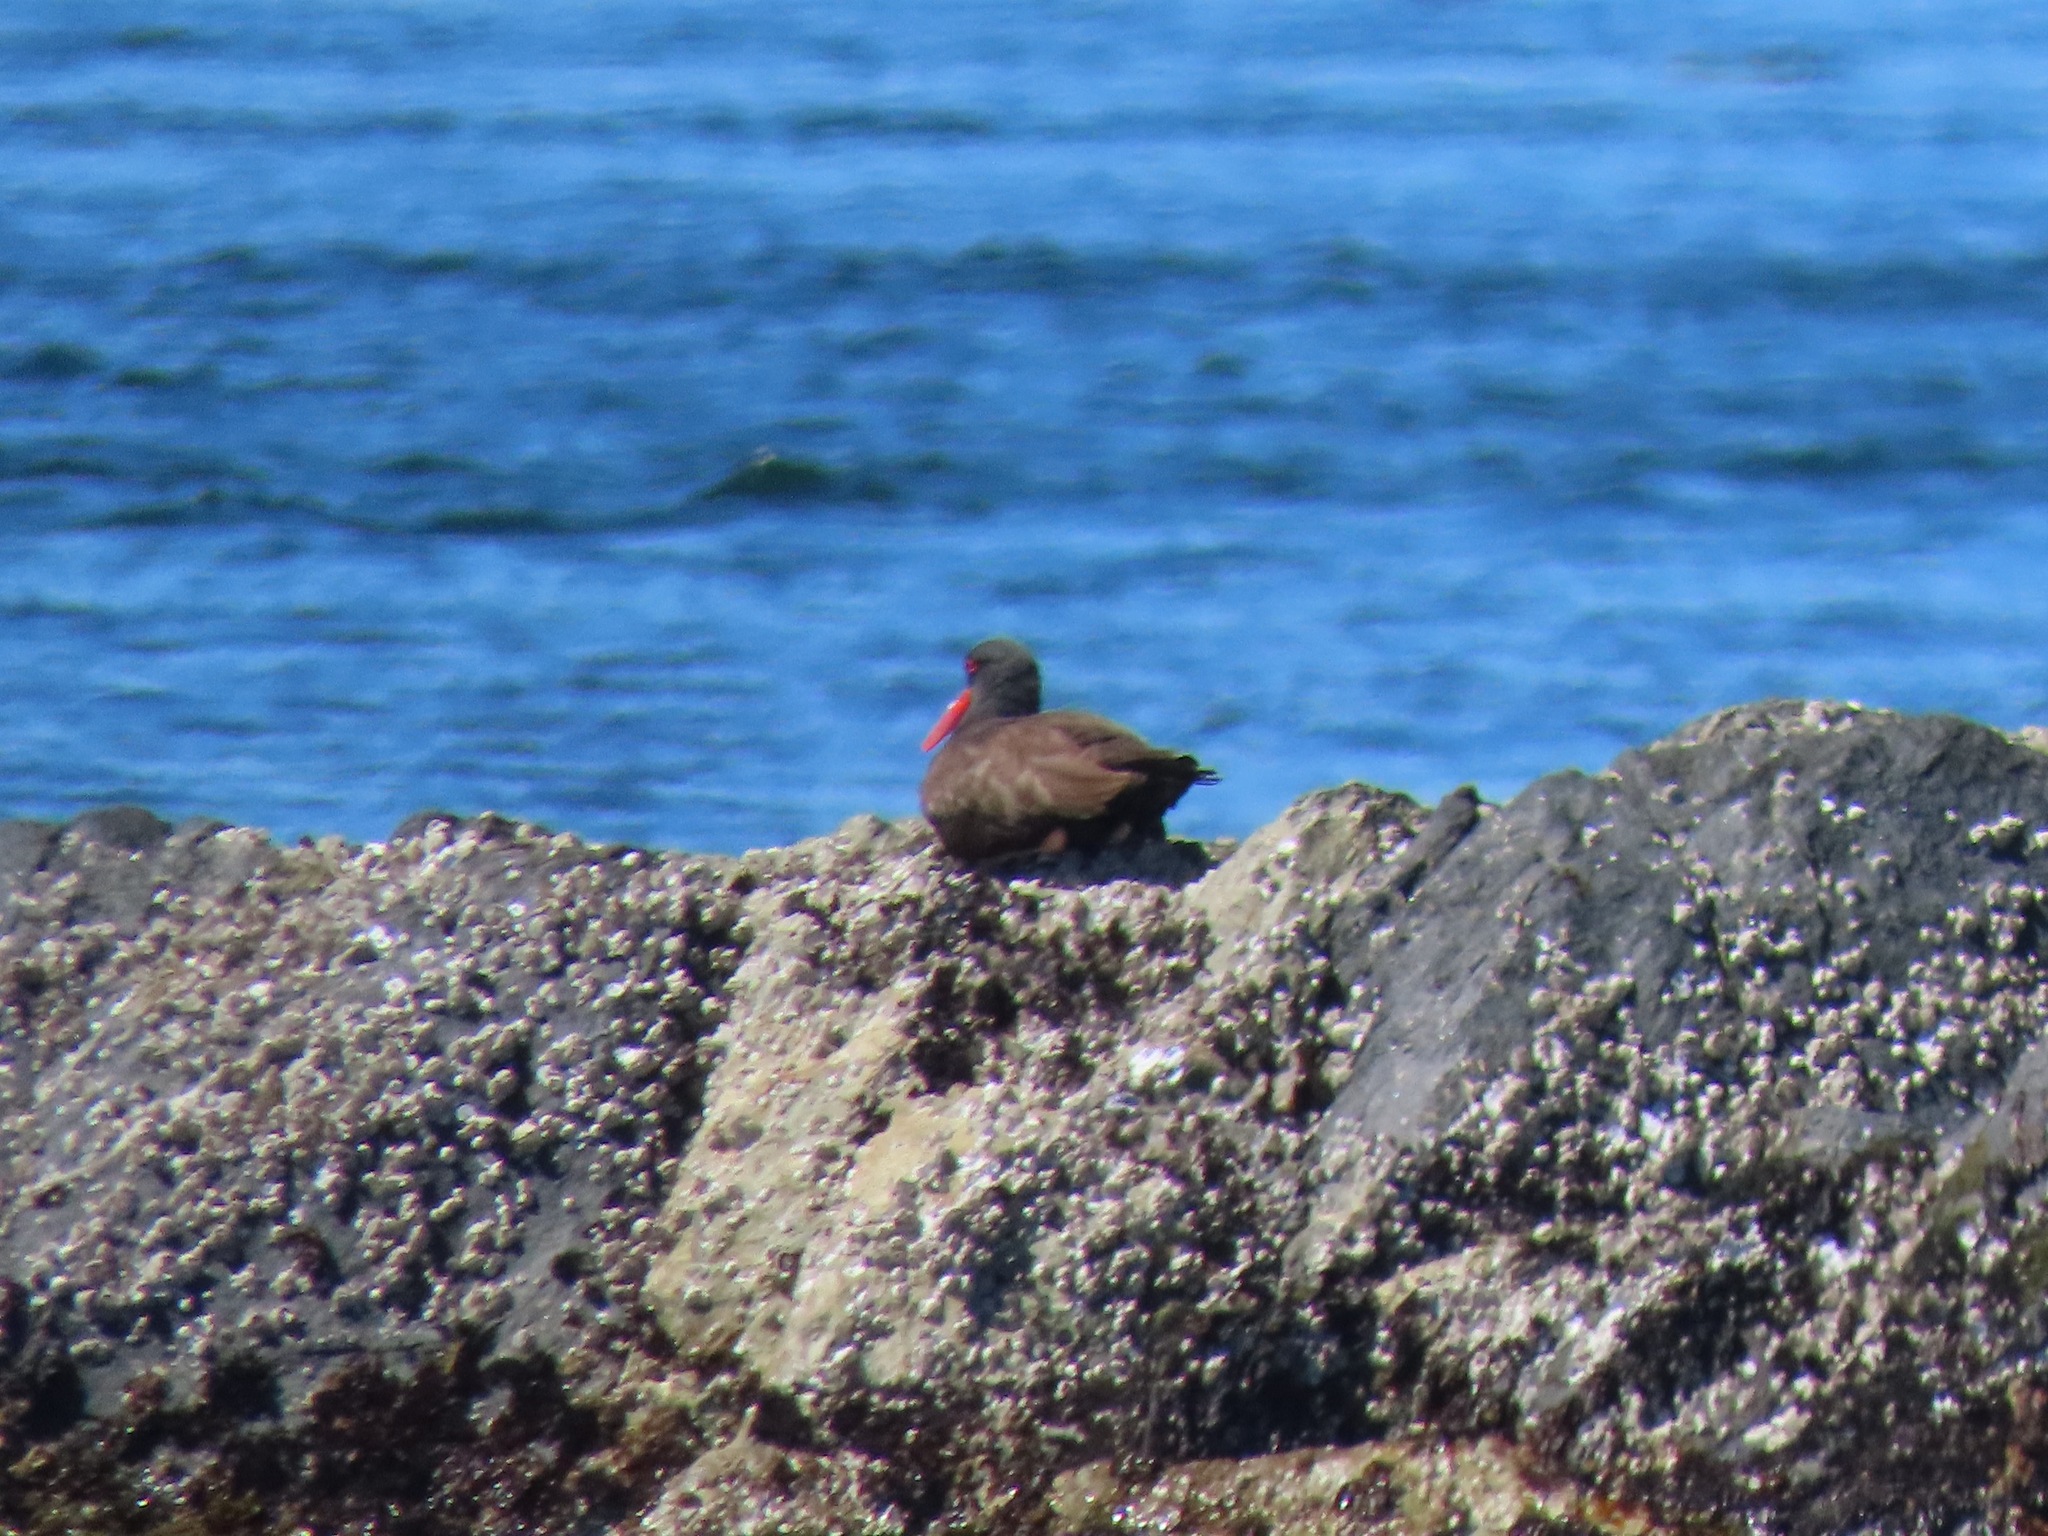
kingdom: Animalia
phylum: Chordata
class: Aves
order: Charadriiformes
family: Haematopodidae
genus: Haematopus
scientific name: Haematopus bachmani
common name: Black oystercatcher
